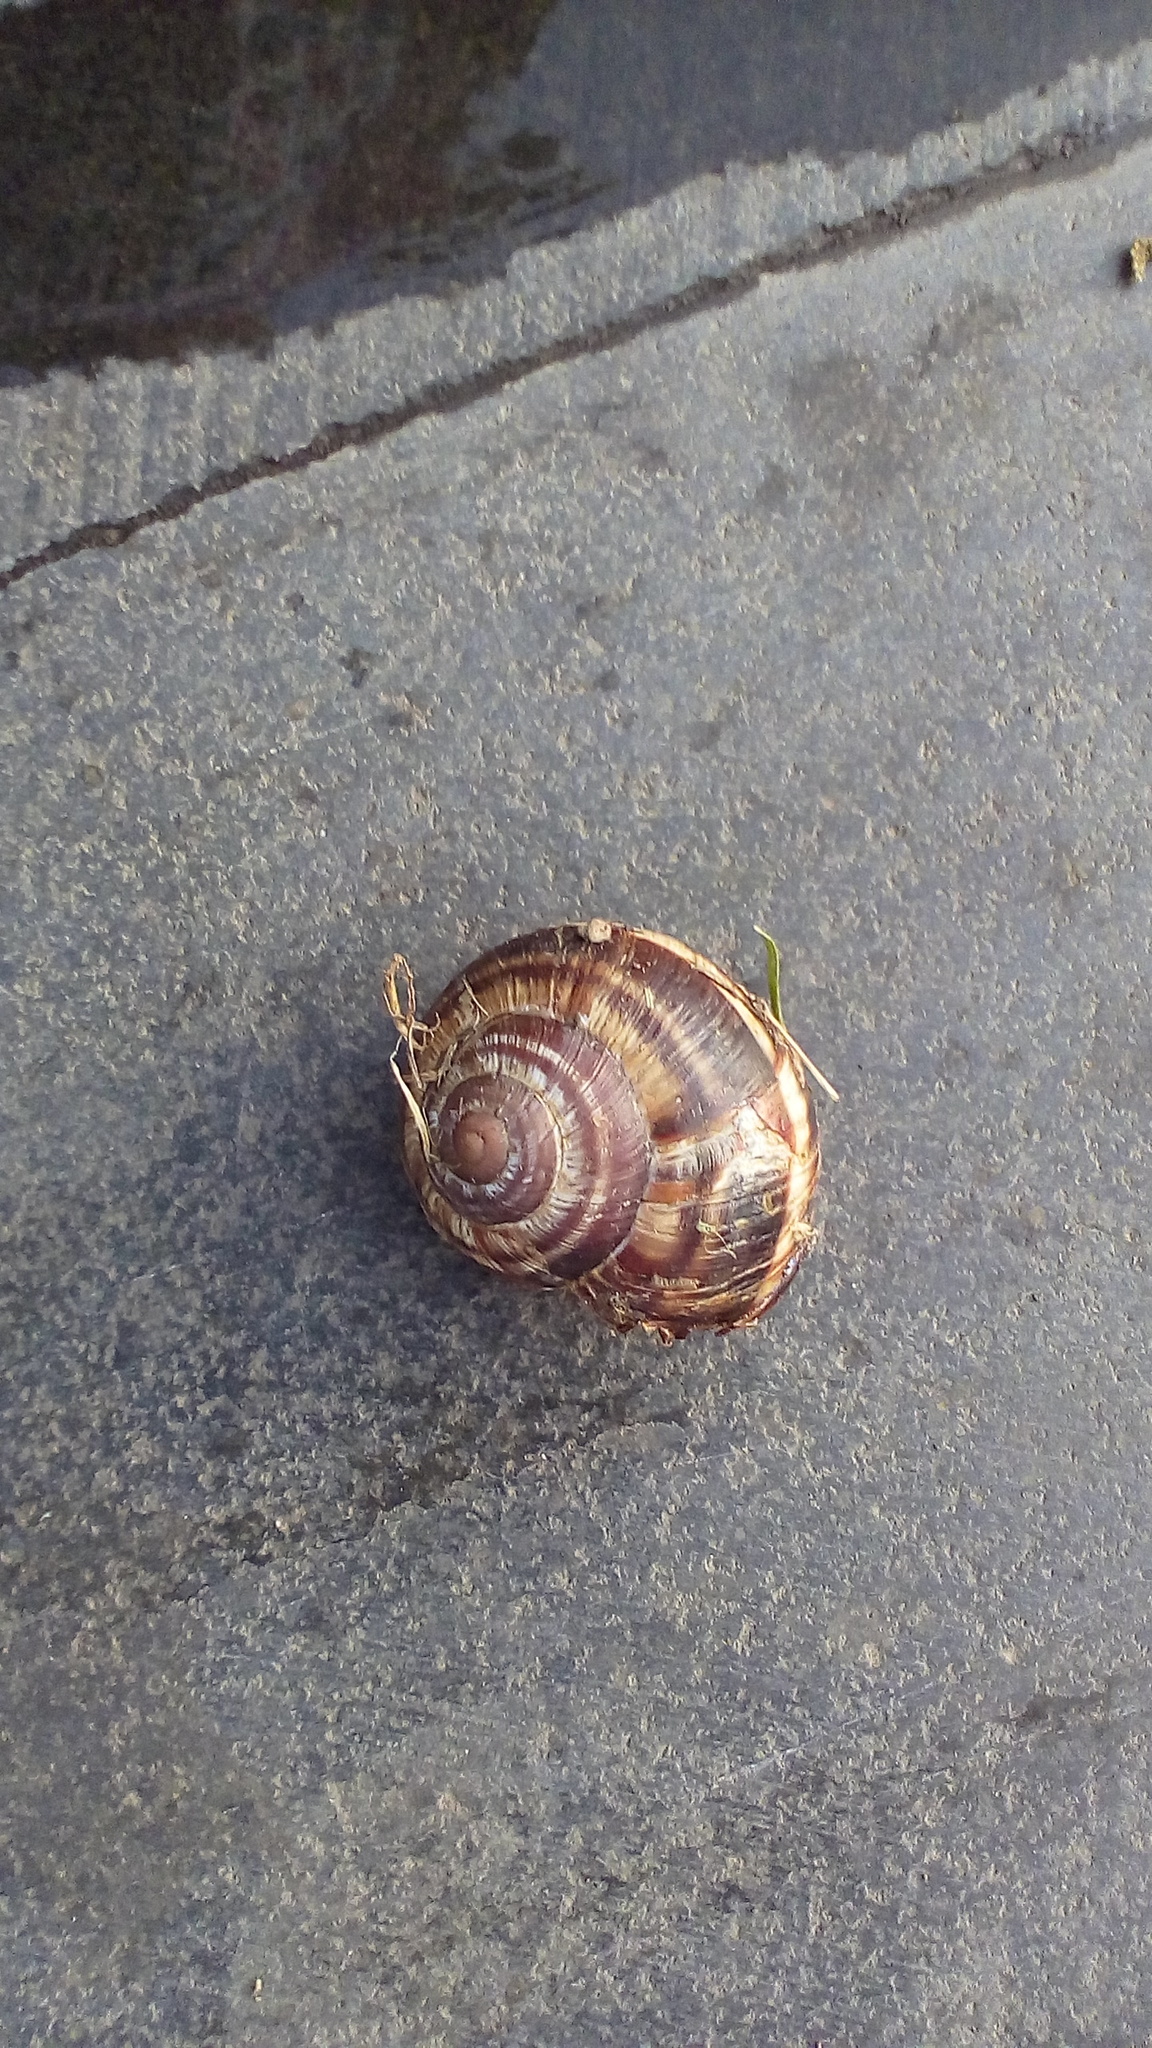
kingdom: Animalia
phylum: Mollusca
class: Gastropoda
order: Stylommatophora
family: Helicidae
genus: Helix
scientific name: Helix lucorum
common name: Turkish snail
